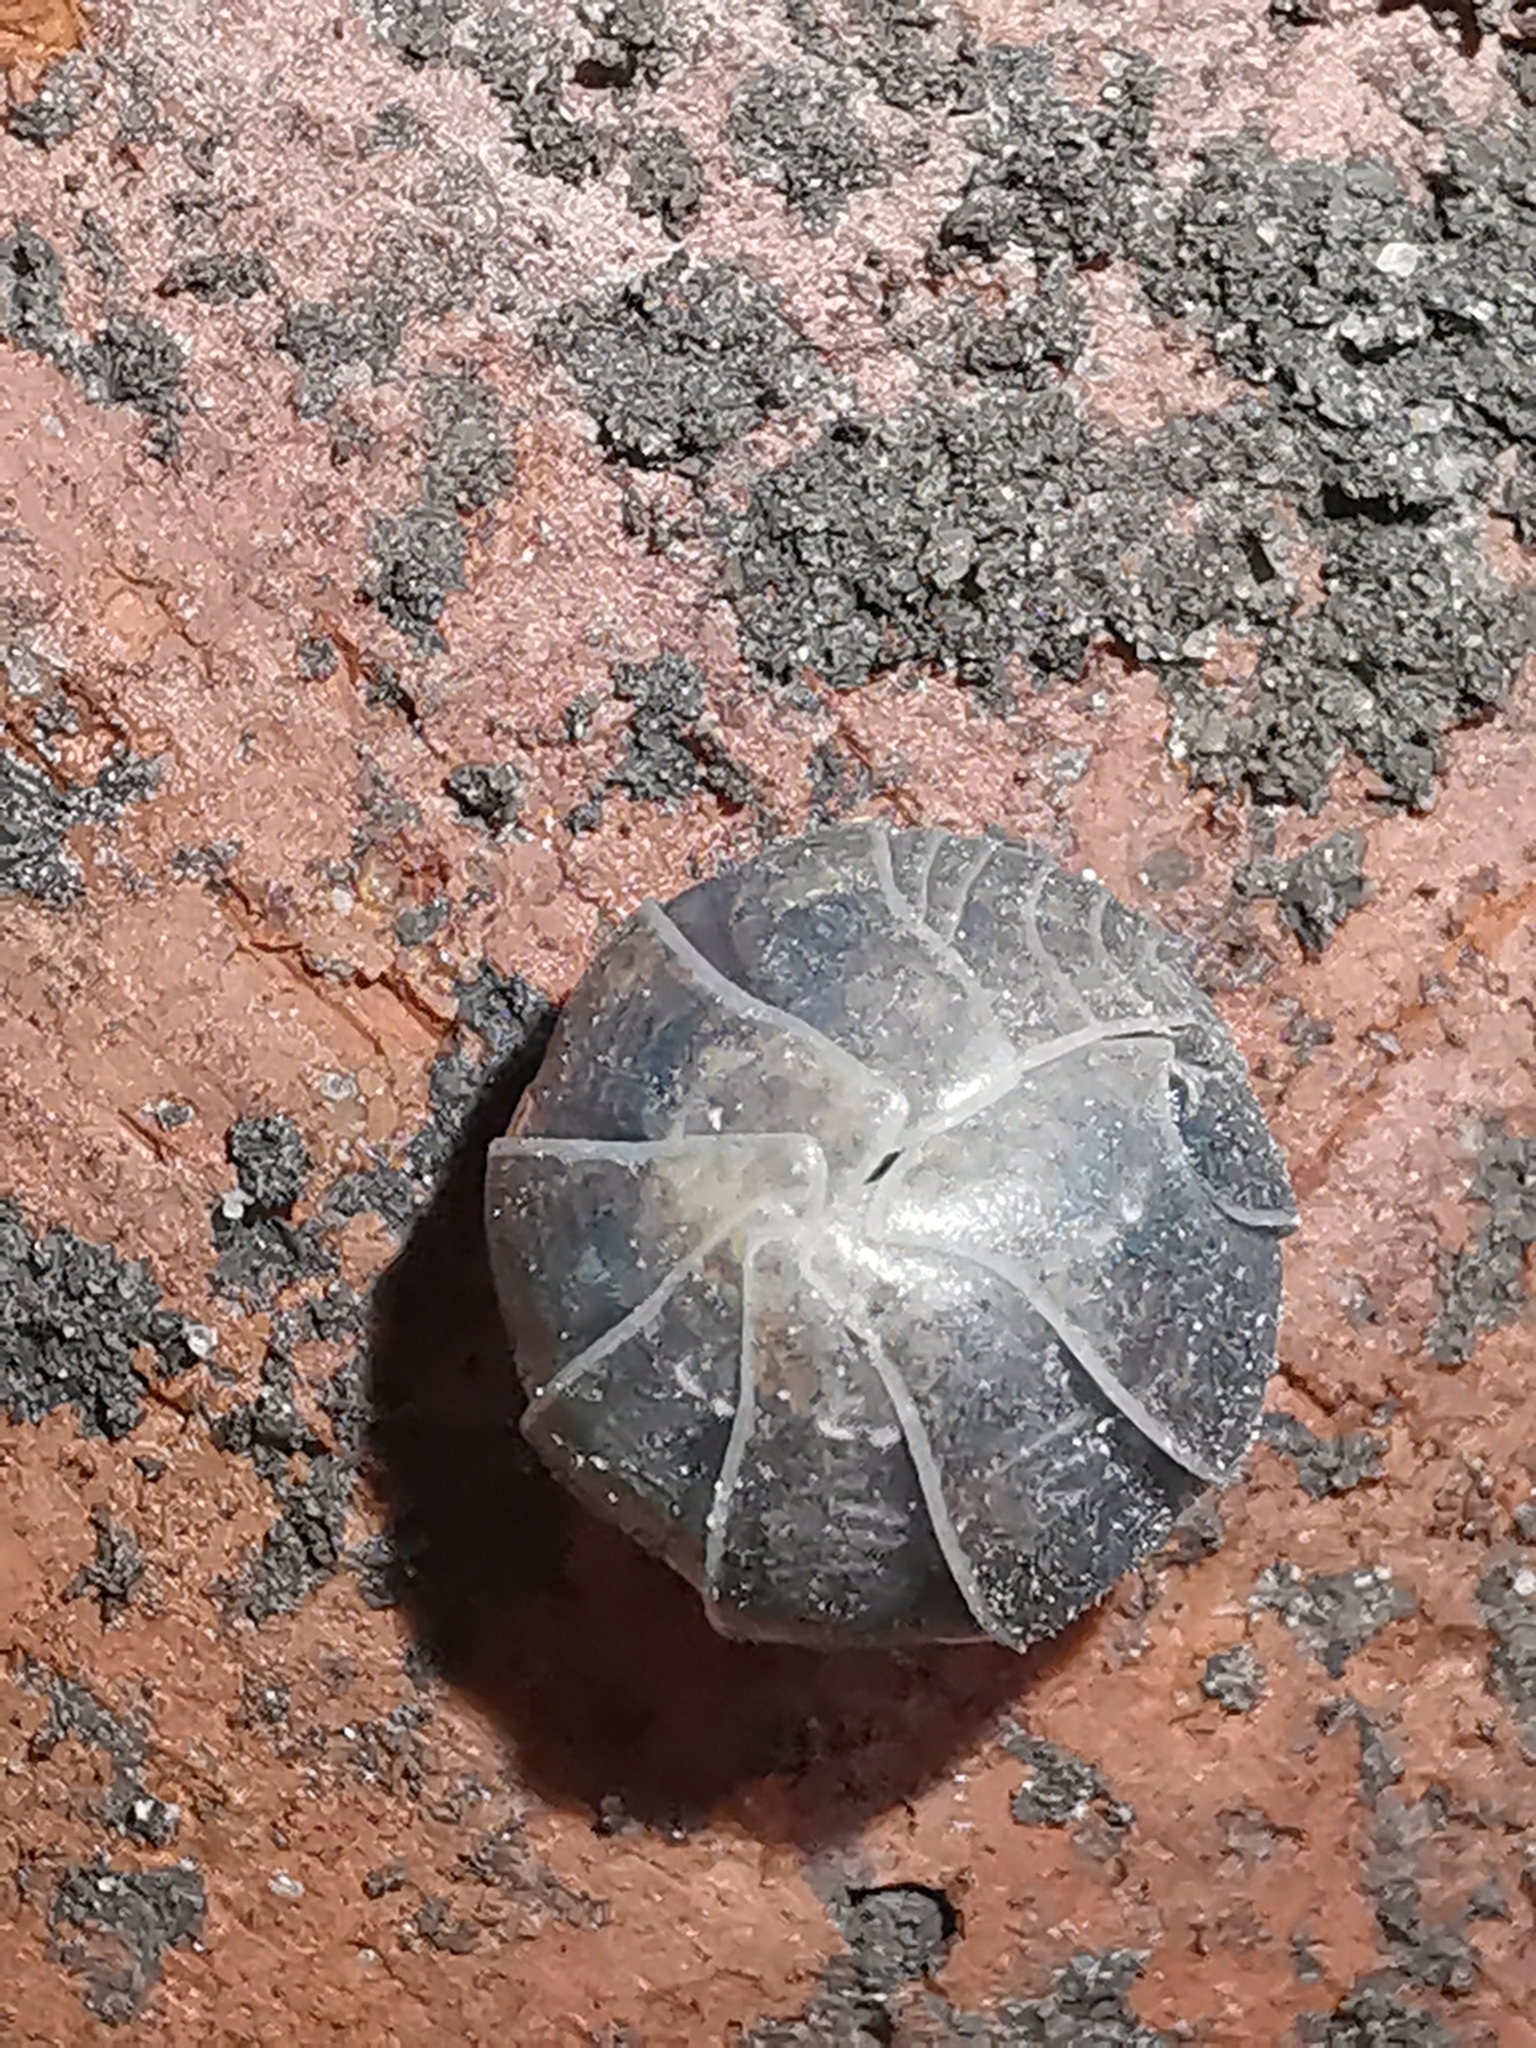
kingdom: Animalia
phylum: Arthropoda
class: Malacostraca
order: Isopoda
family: Armadillidiidae
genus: Armadillidium
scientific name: Armadillidium vulgare
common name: Common pill woodlouse
